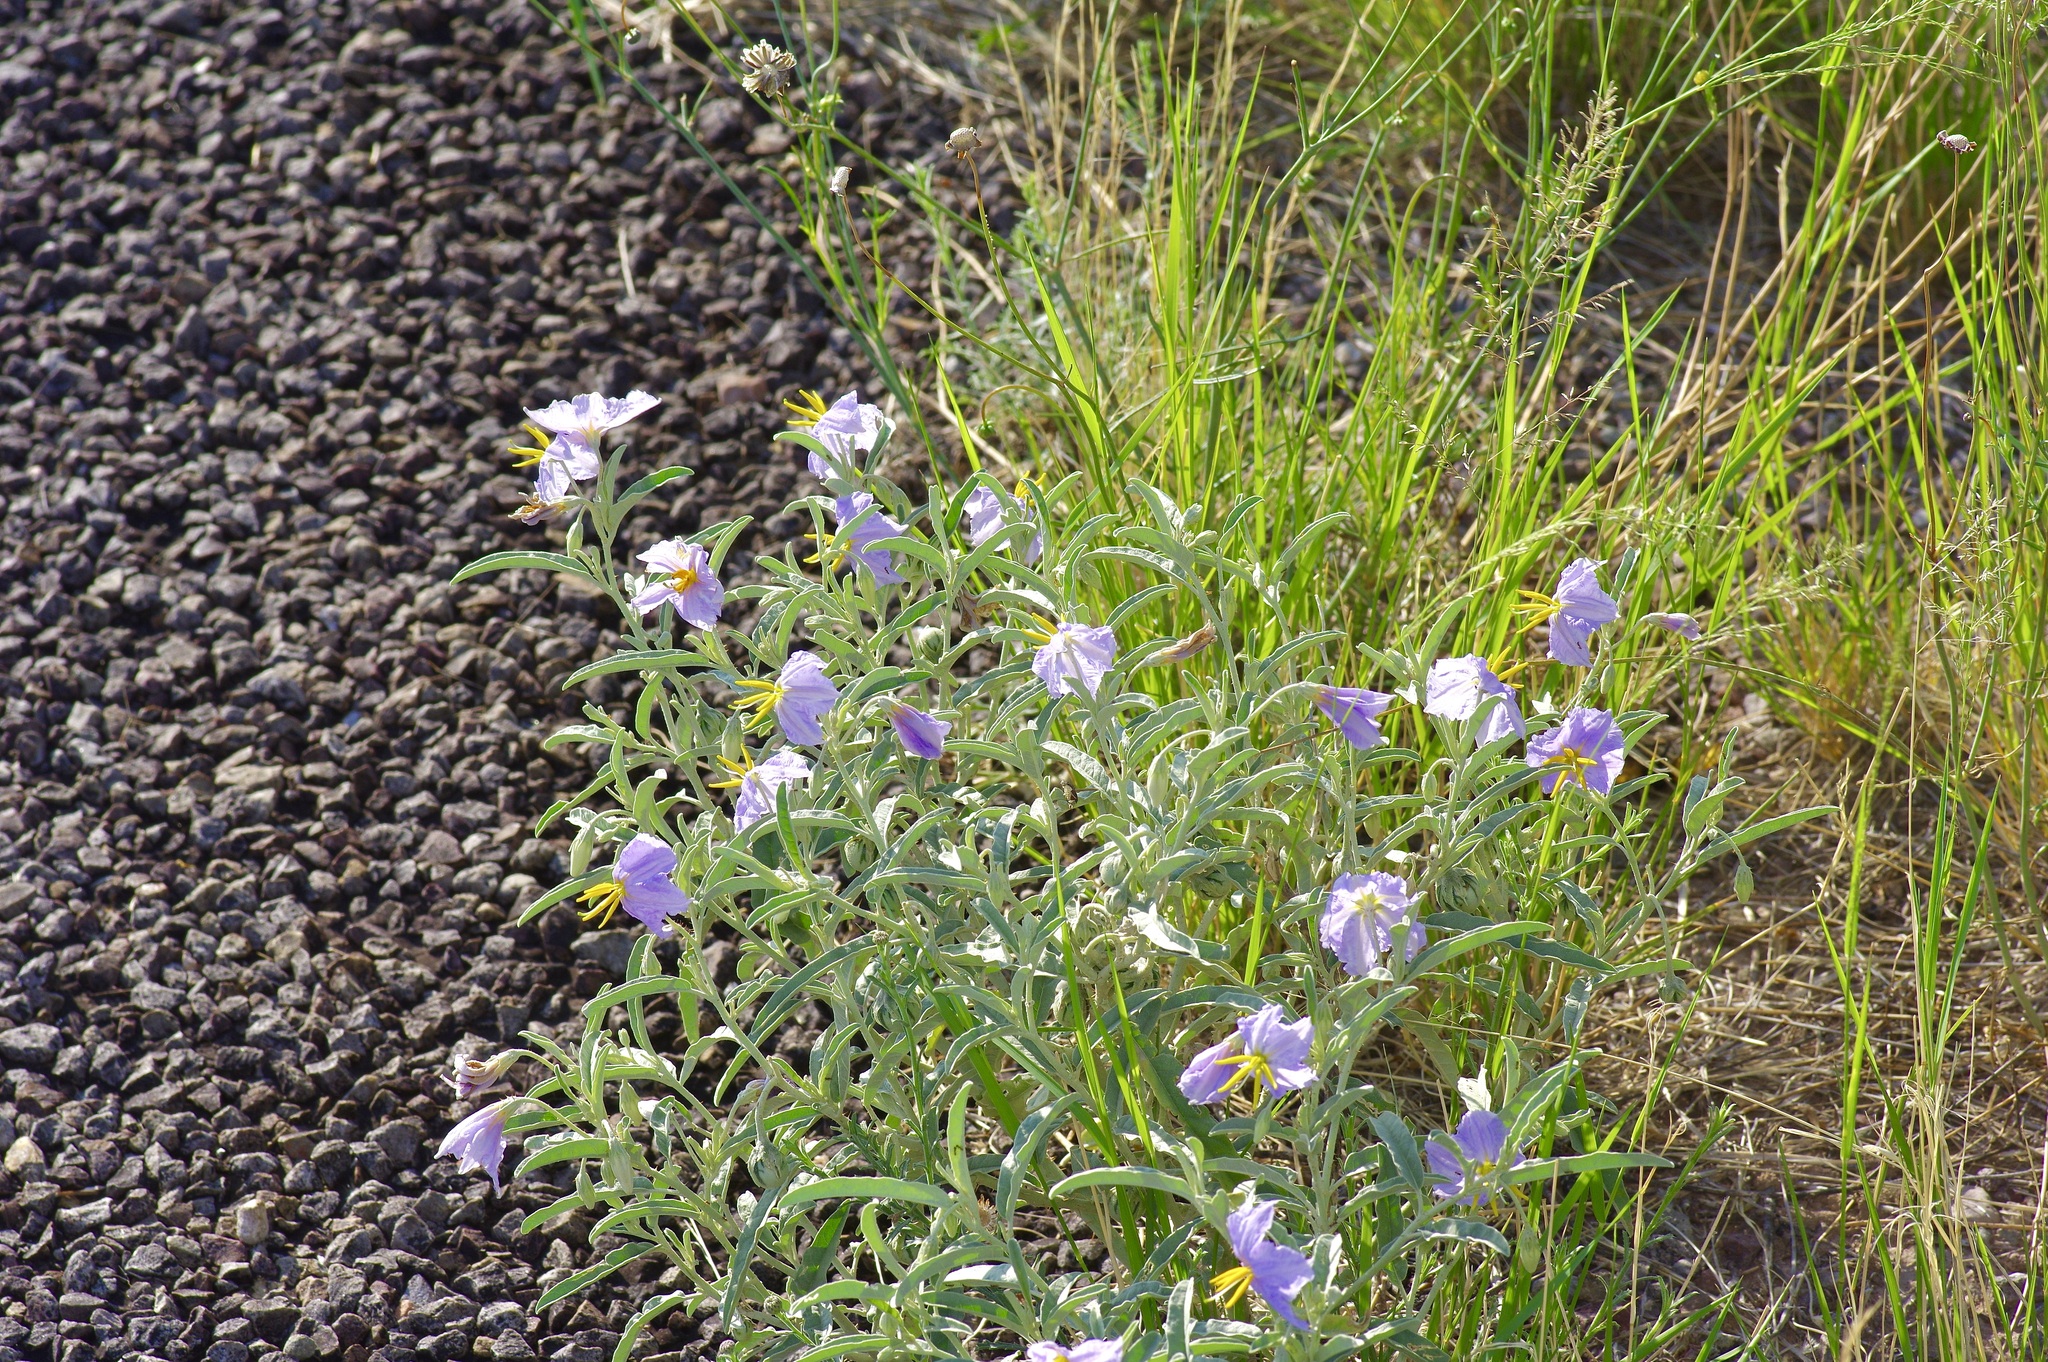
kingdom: Plantae
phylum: Tracheophyta
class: Magnoliopsida
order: Solanales
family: Solanaceae
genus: Solanum
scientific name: Solanum elaeagnifolium
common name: Silverleaf nightshade
